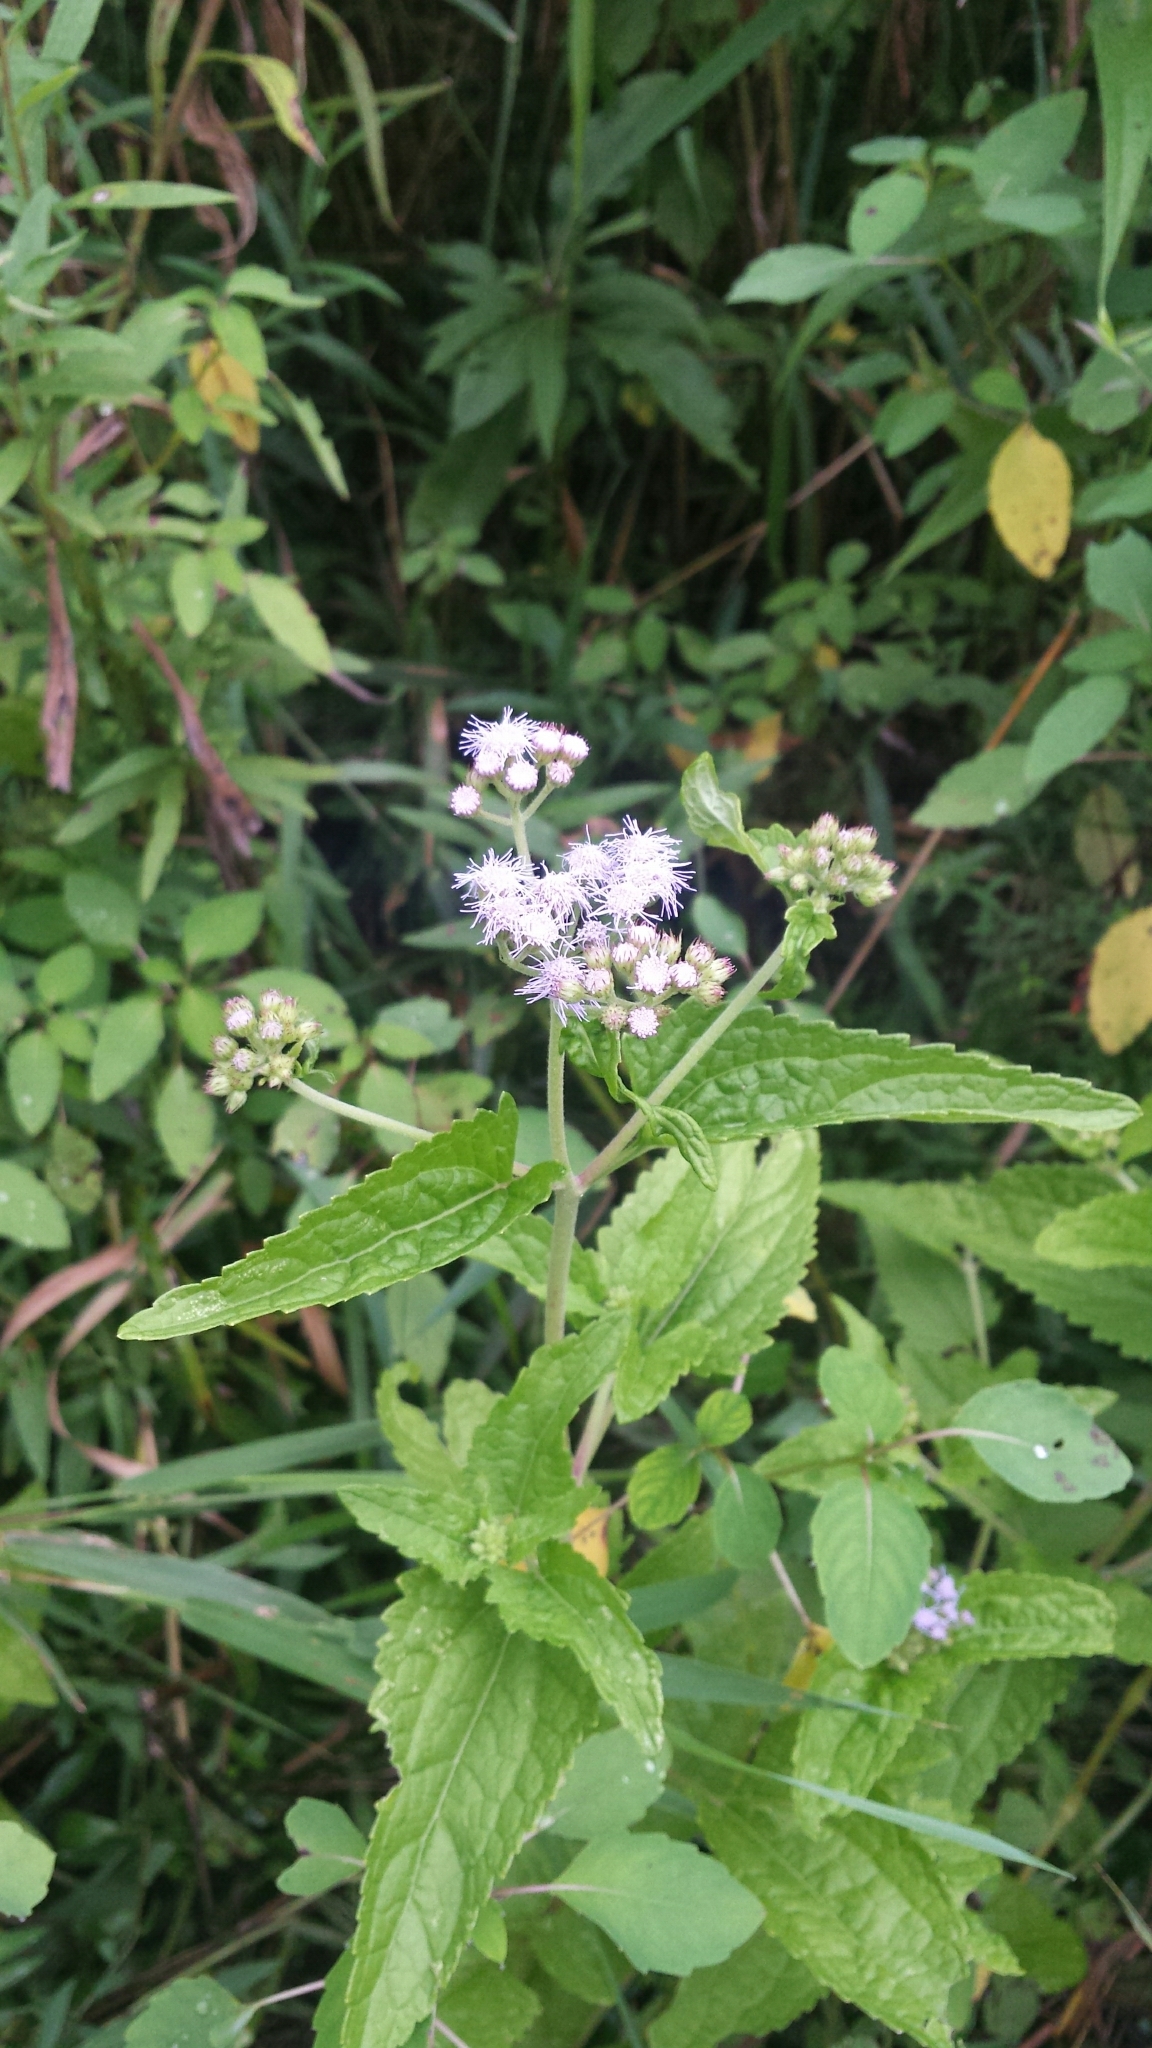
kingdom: Plantae
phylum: Tracheophyta
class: Magnoliopsida
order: Asterales
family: Asteraceae
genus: Conoclinium
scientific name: Conoclinium coelestinum
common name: Blue mistflower
